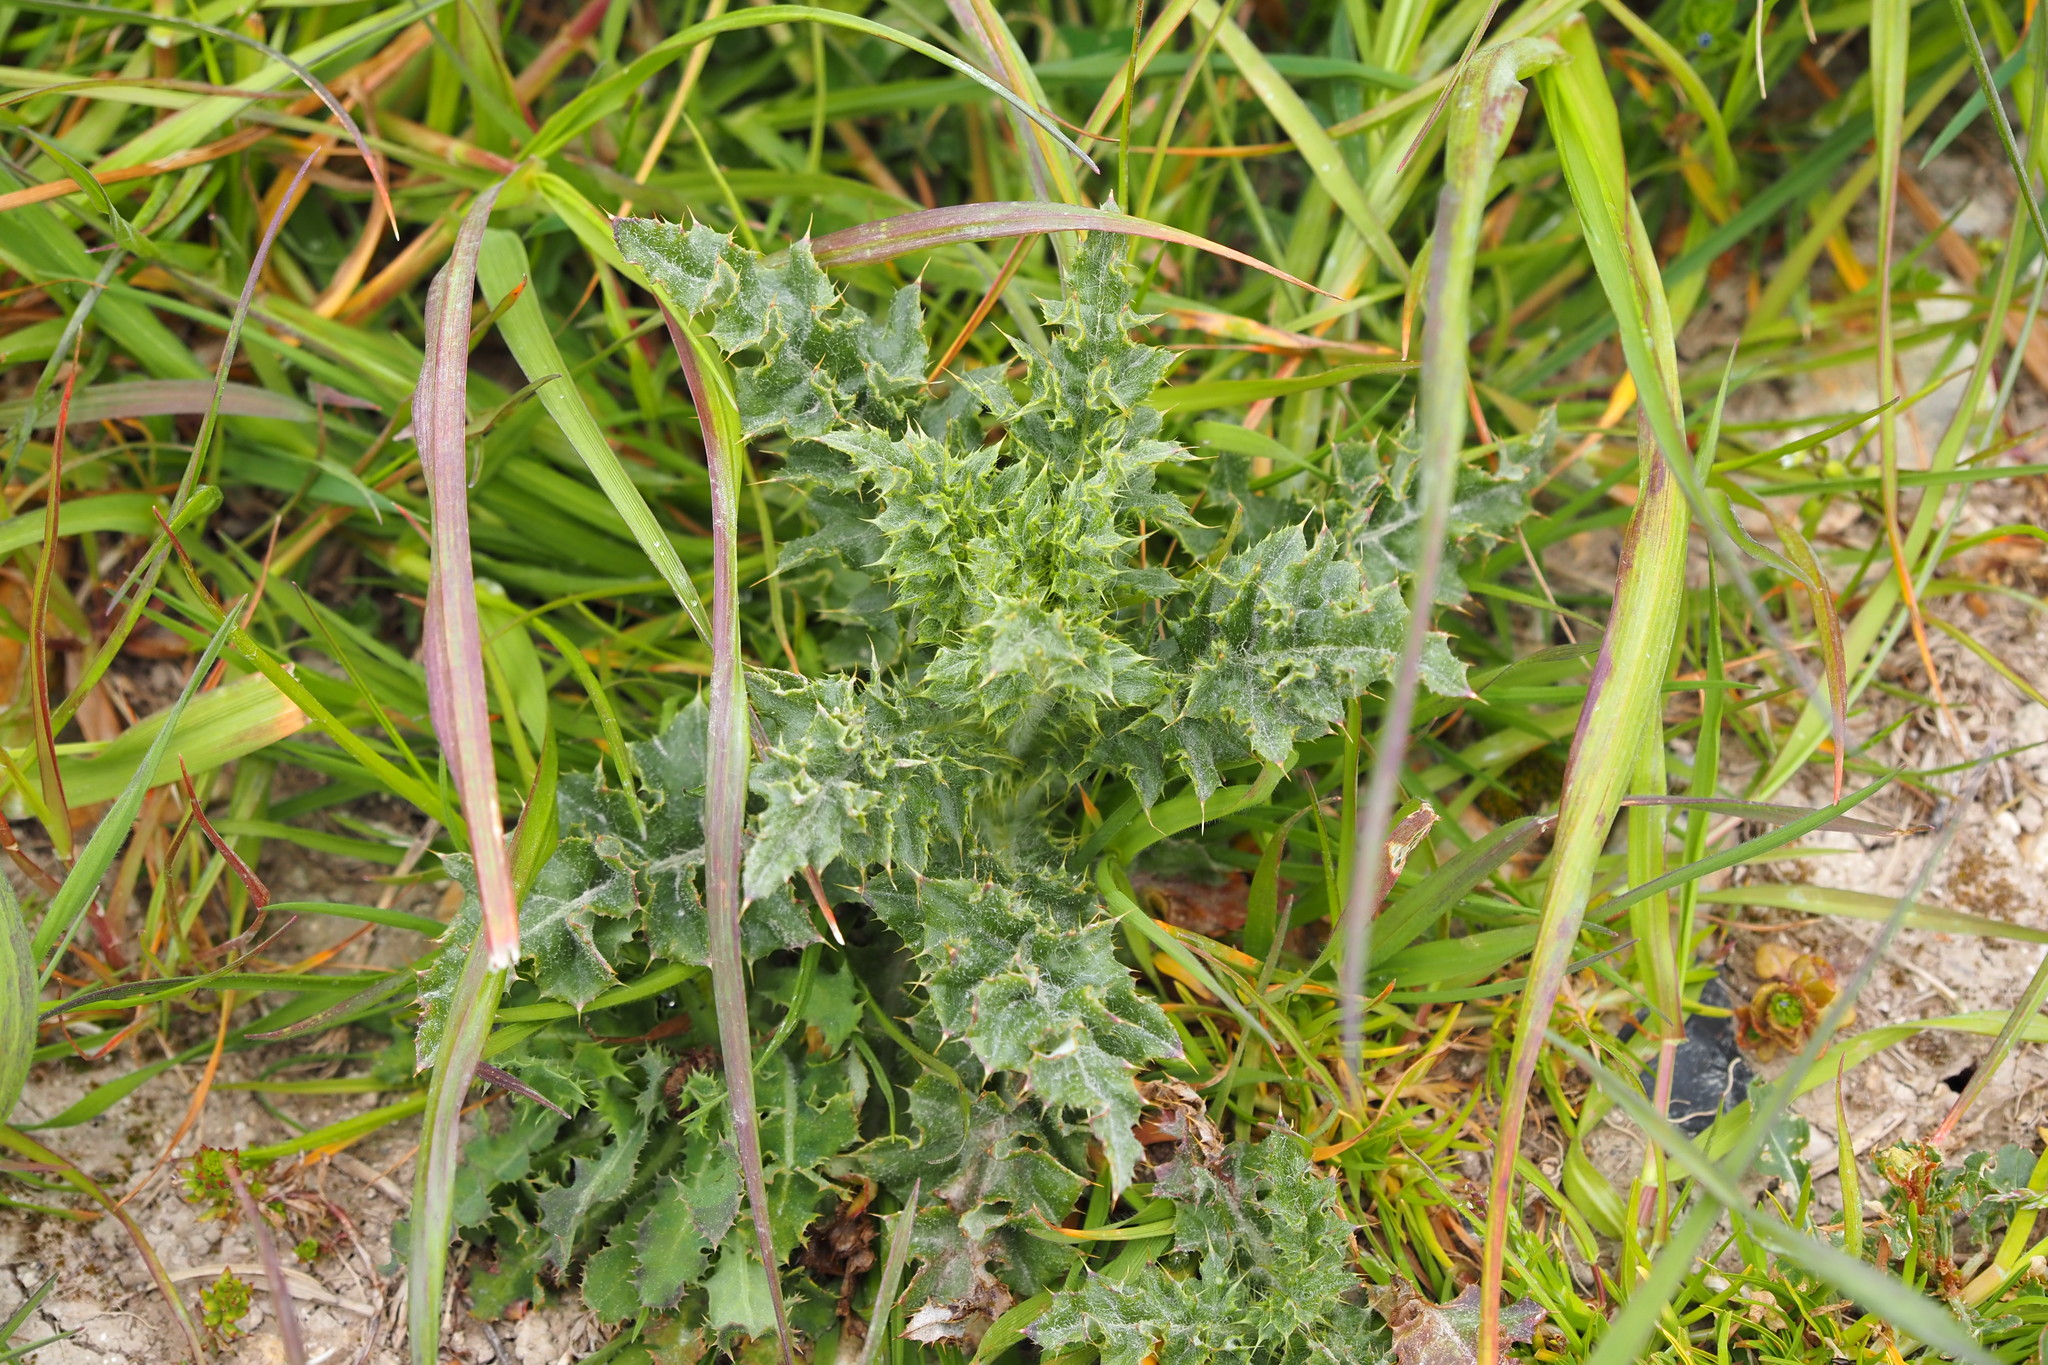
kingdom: Plantae
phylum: Tracheophyta
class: Magnoliopsida
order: Asterales
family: Asteraceae
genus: Cirsium
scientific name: Cirsium arvense
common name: Creeping thistle
